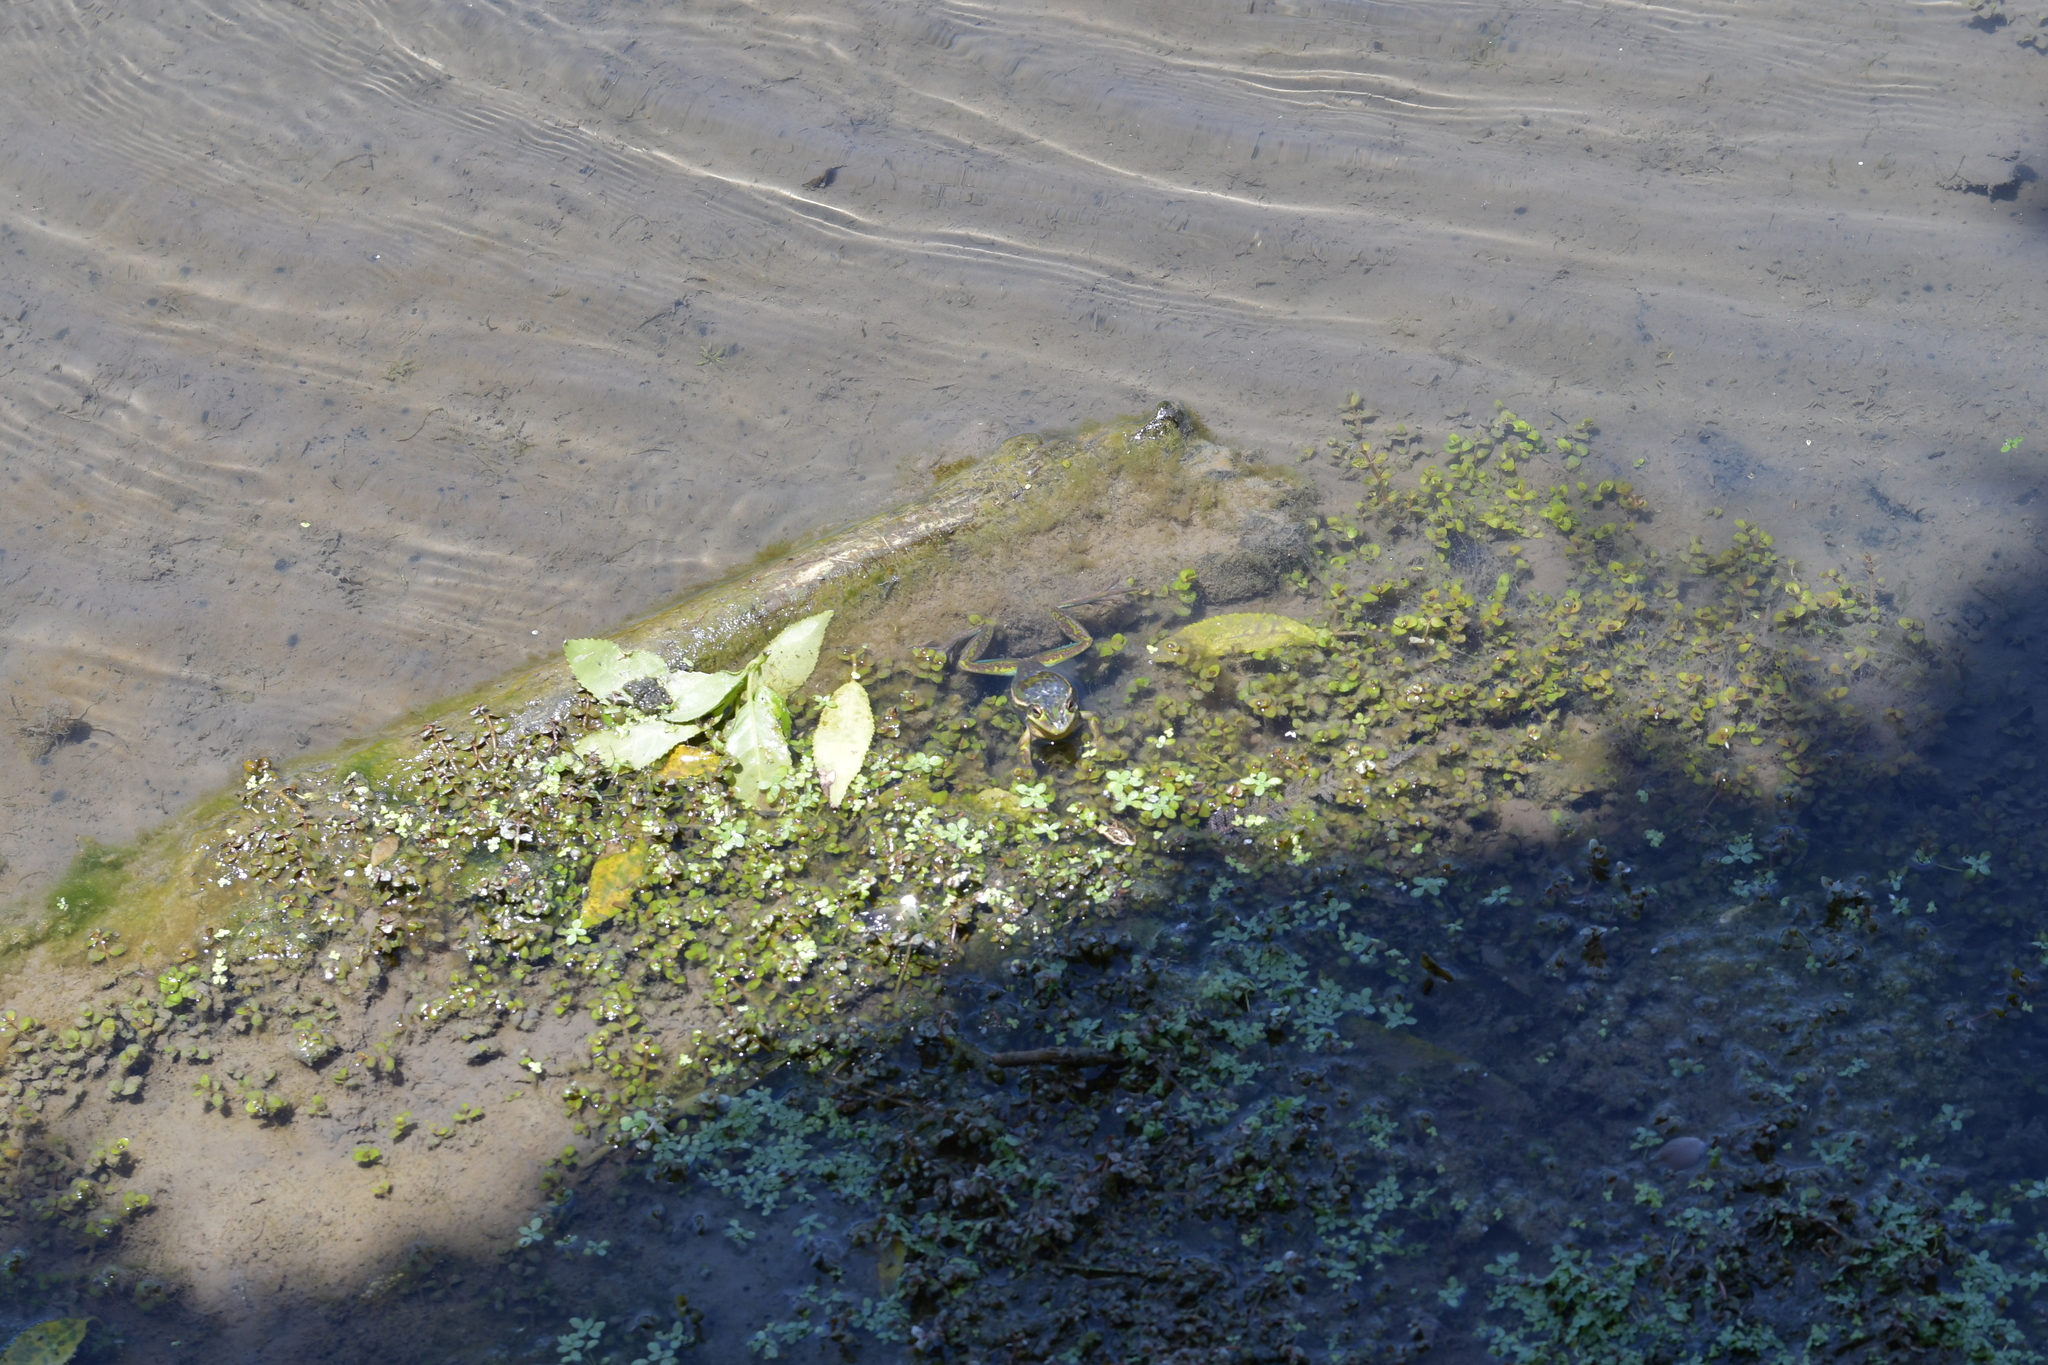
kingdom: Animalia
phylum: Chordata
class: Amphibia
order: Anura
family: Pelodryadidae
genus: Ranoidea
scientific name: Ranoidea aurea
